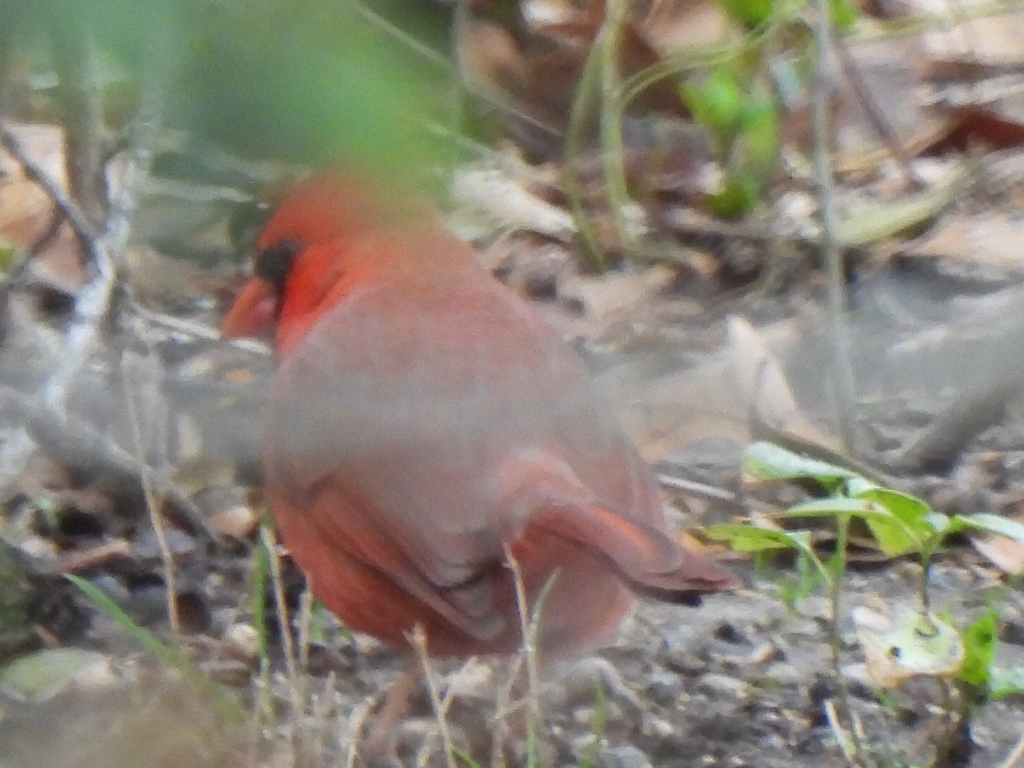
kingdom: Animalia
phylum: Chordata
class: Aves
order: Passeriformes
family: Cardinalidae
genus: Cardinalis
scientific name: Cardinalis cardinalis
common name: Northern cardinal
